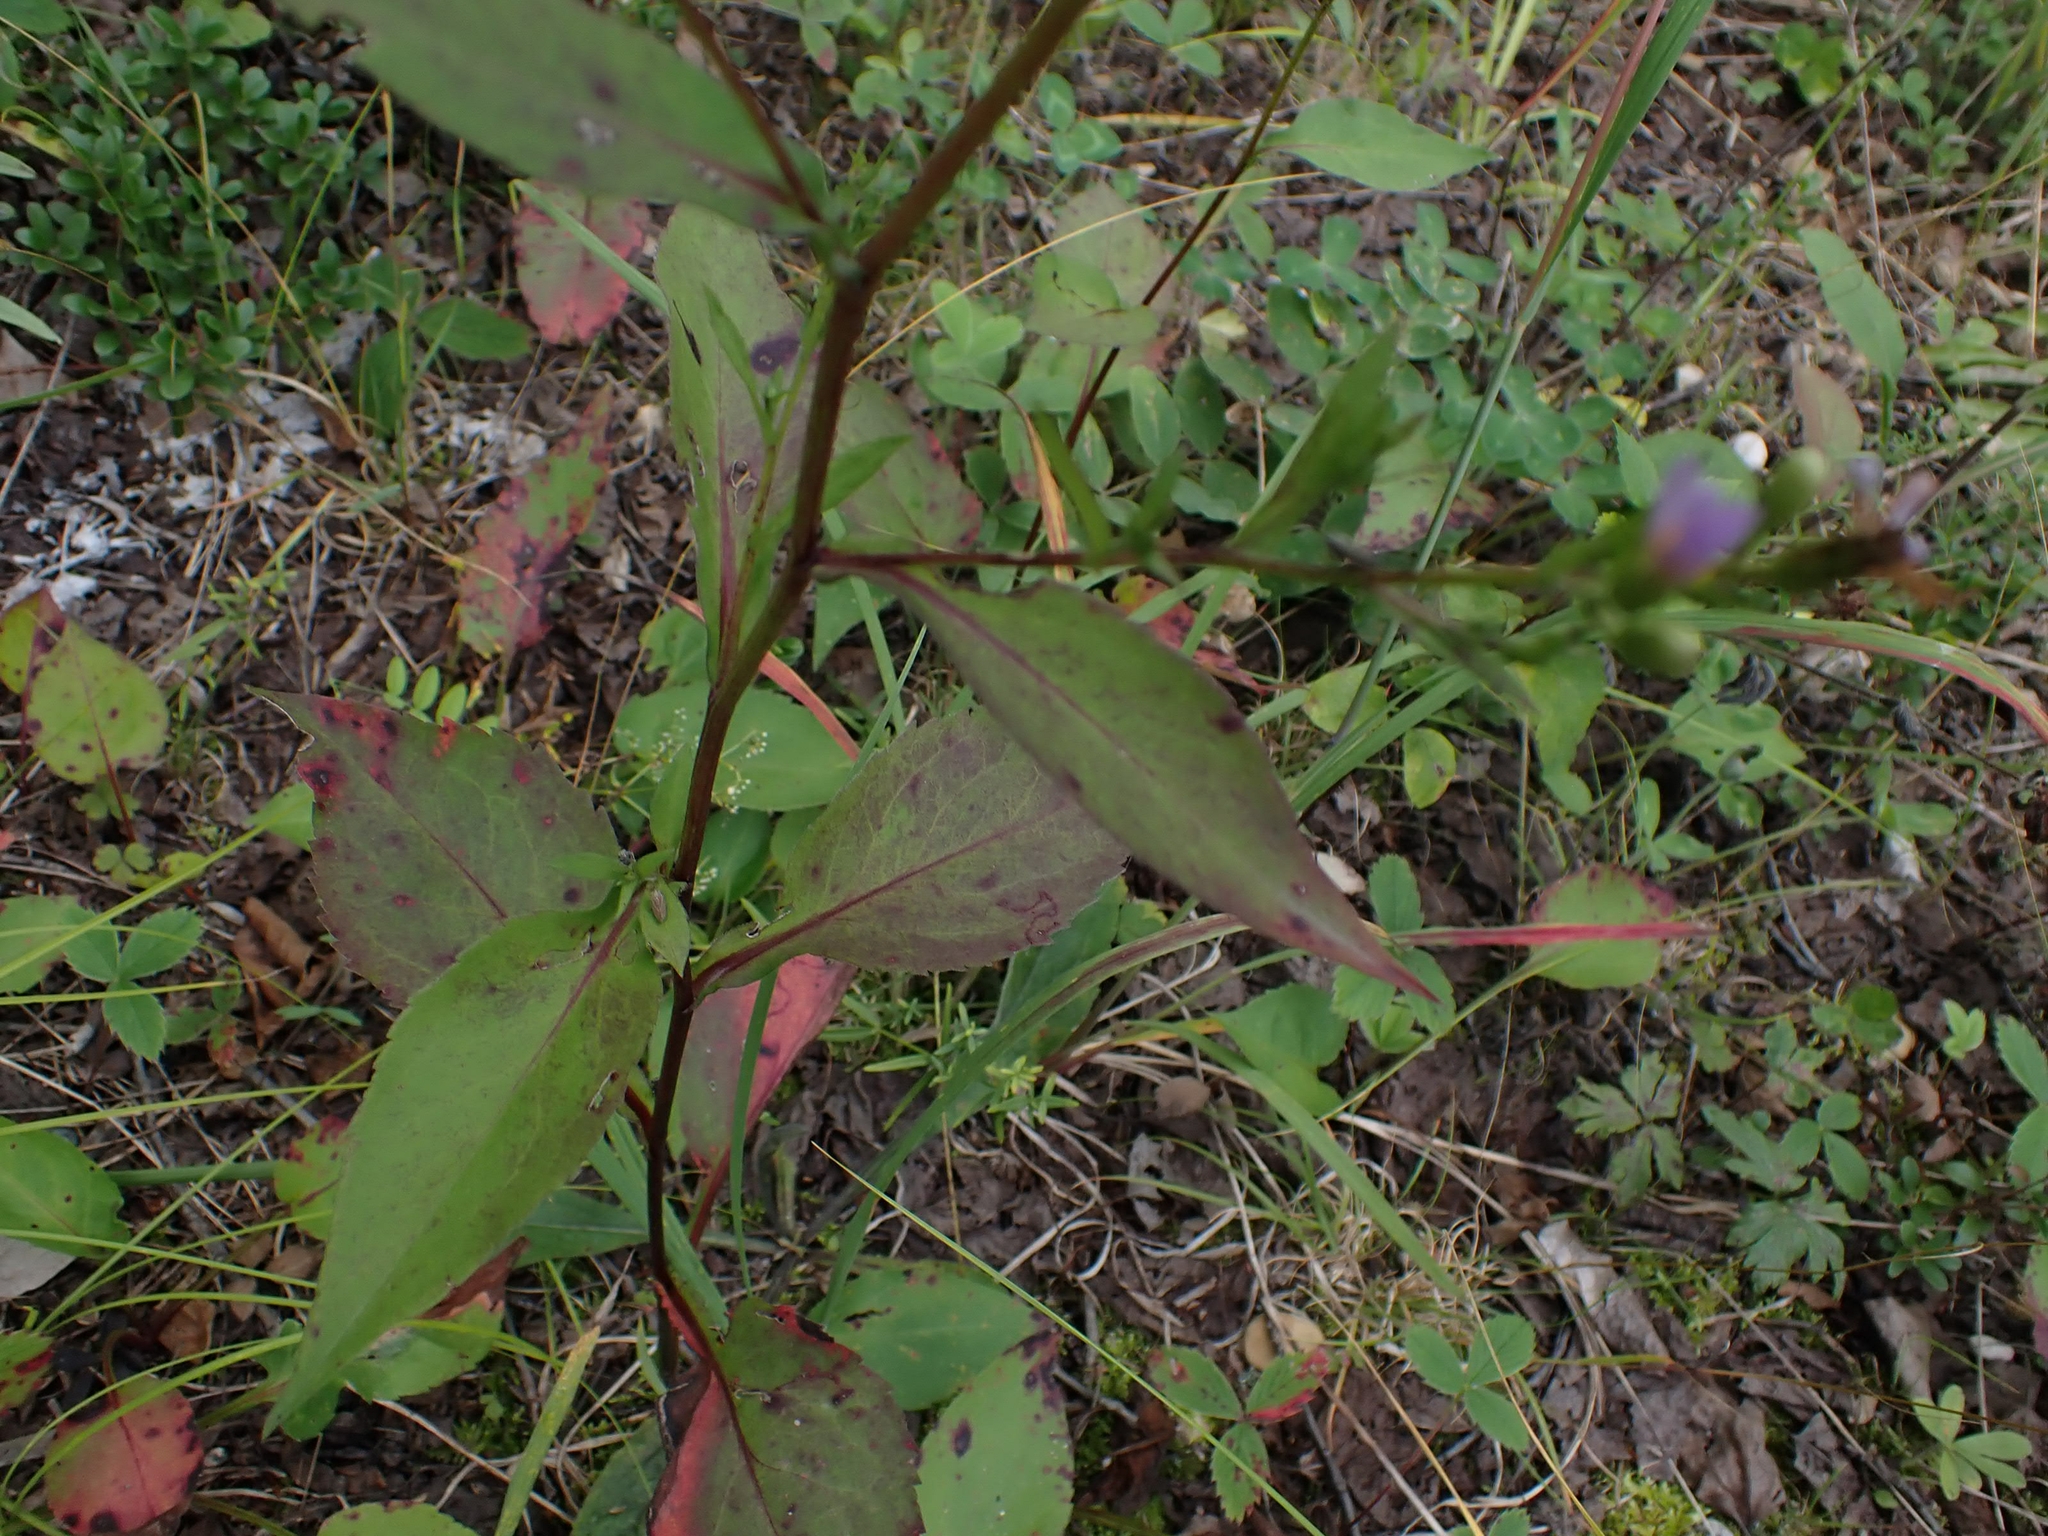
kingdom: Plantae
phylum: Tracheophyta
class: Magnoliopsida
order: Asterales
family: Asteraceae
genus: Symphyotrichum
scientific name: Symphyotrichum ciliolatum
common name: Fringed blue aster
